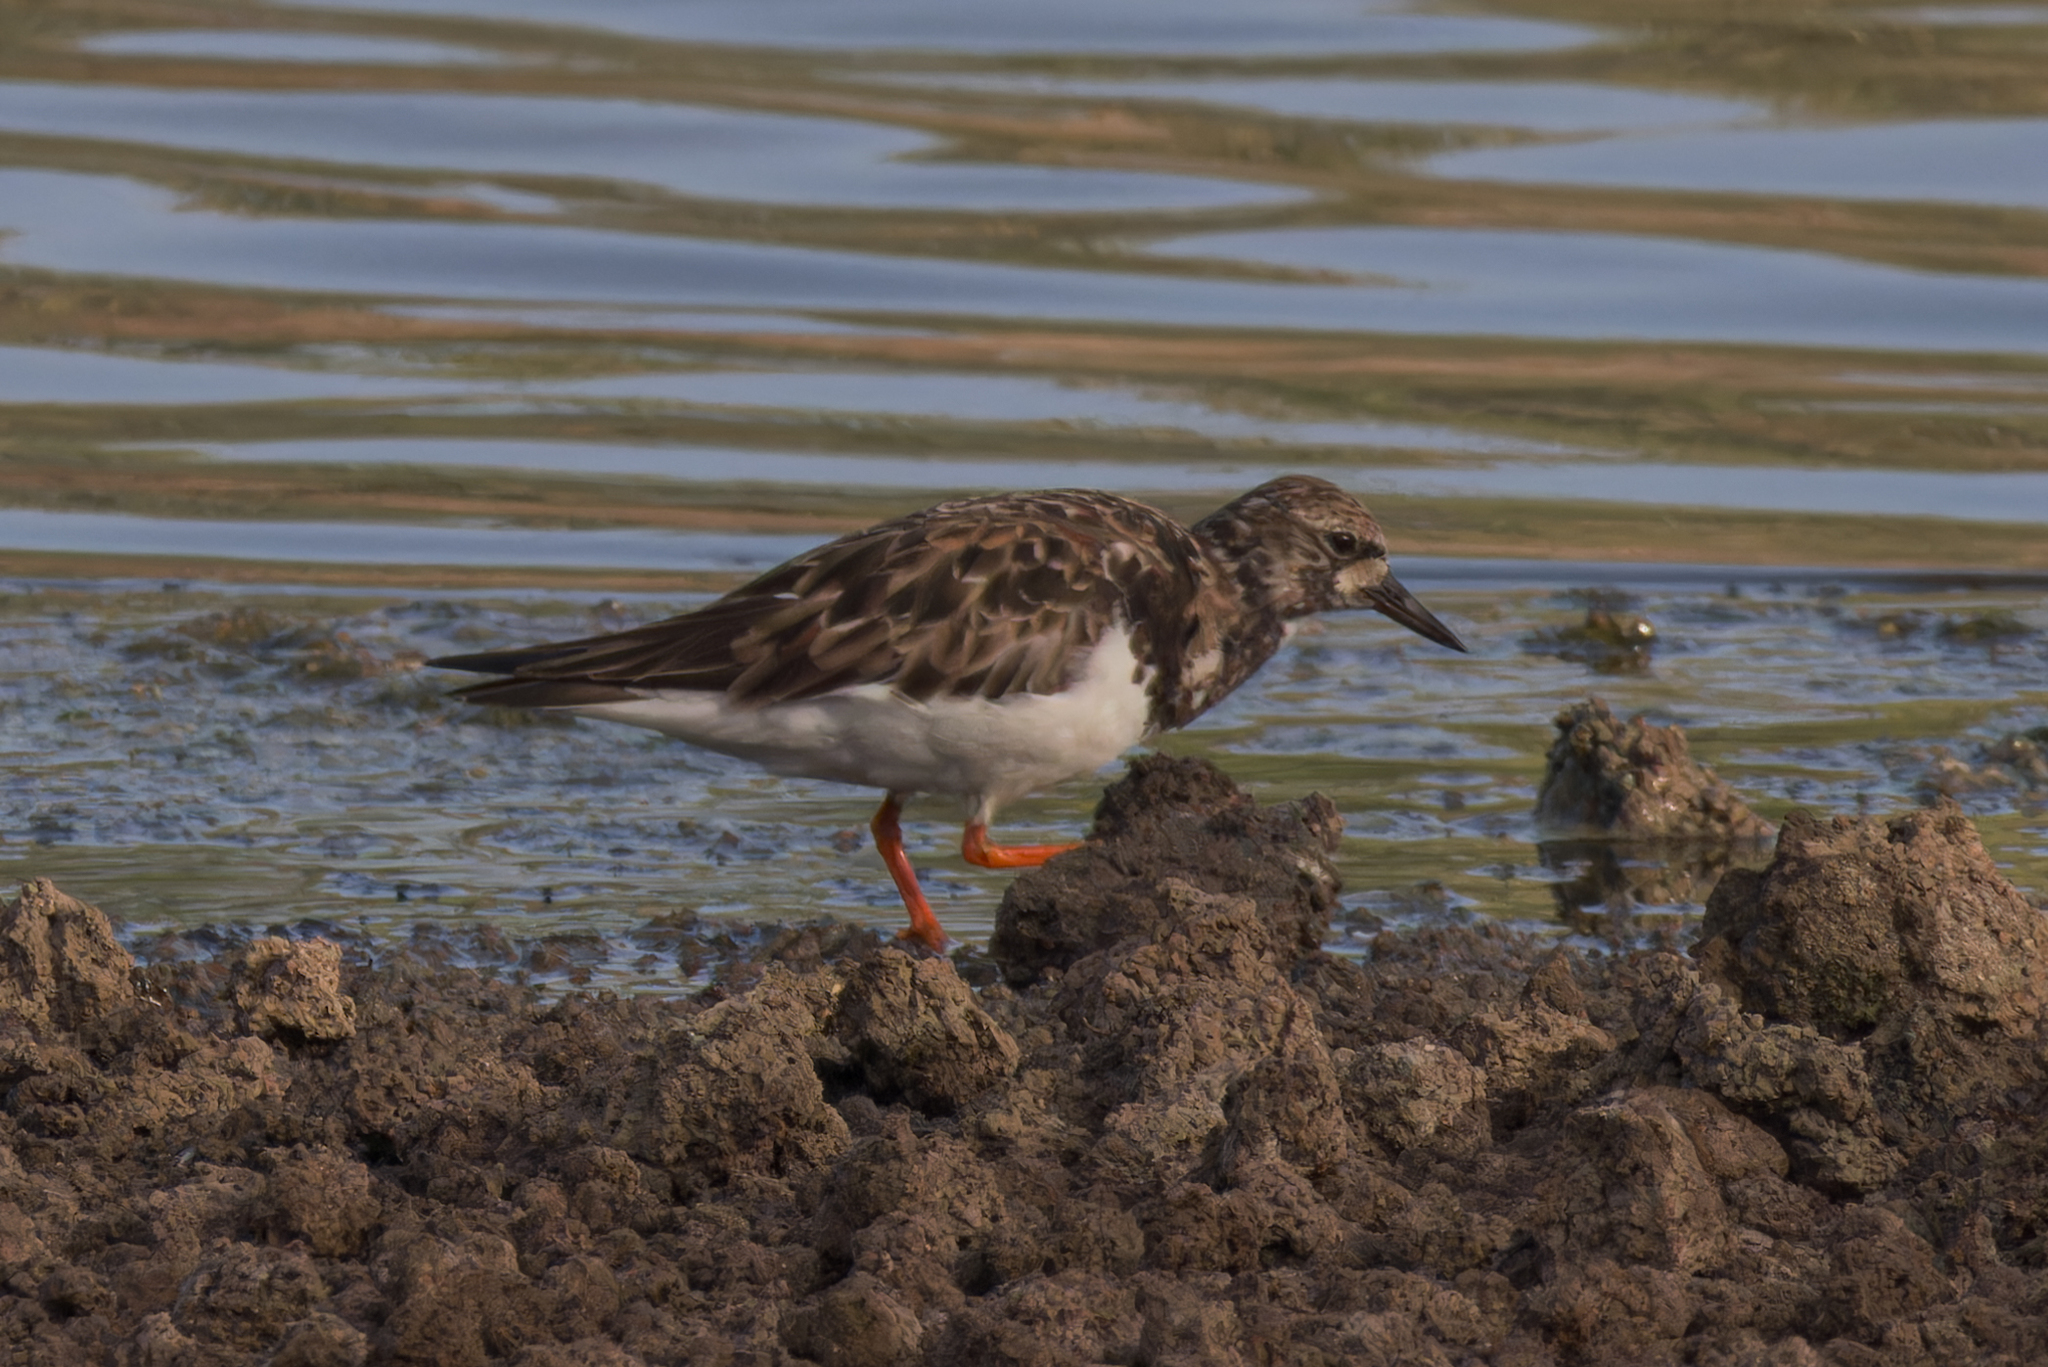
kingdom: Animalia
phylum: Chordata
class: Aves
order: Charadriiformes
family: Scolopacidae
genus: Arenaria
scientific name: Arenaria interpres
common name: Ruddy turnstone
